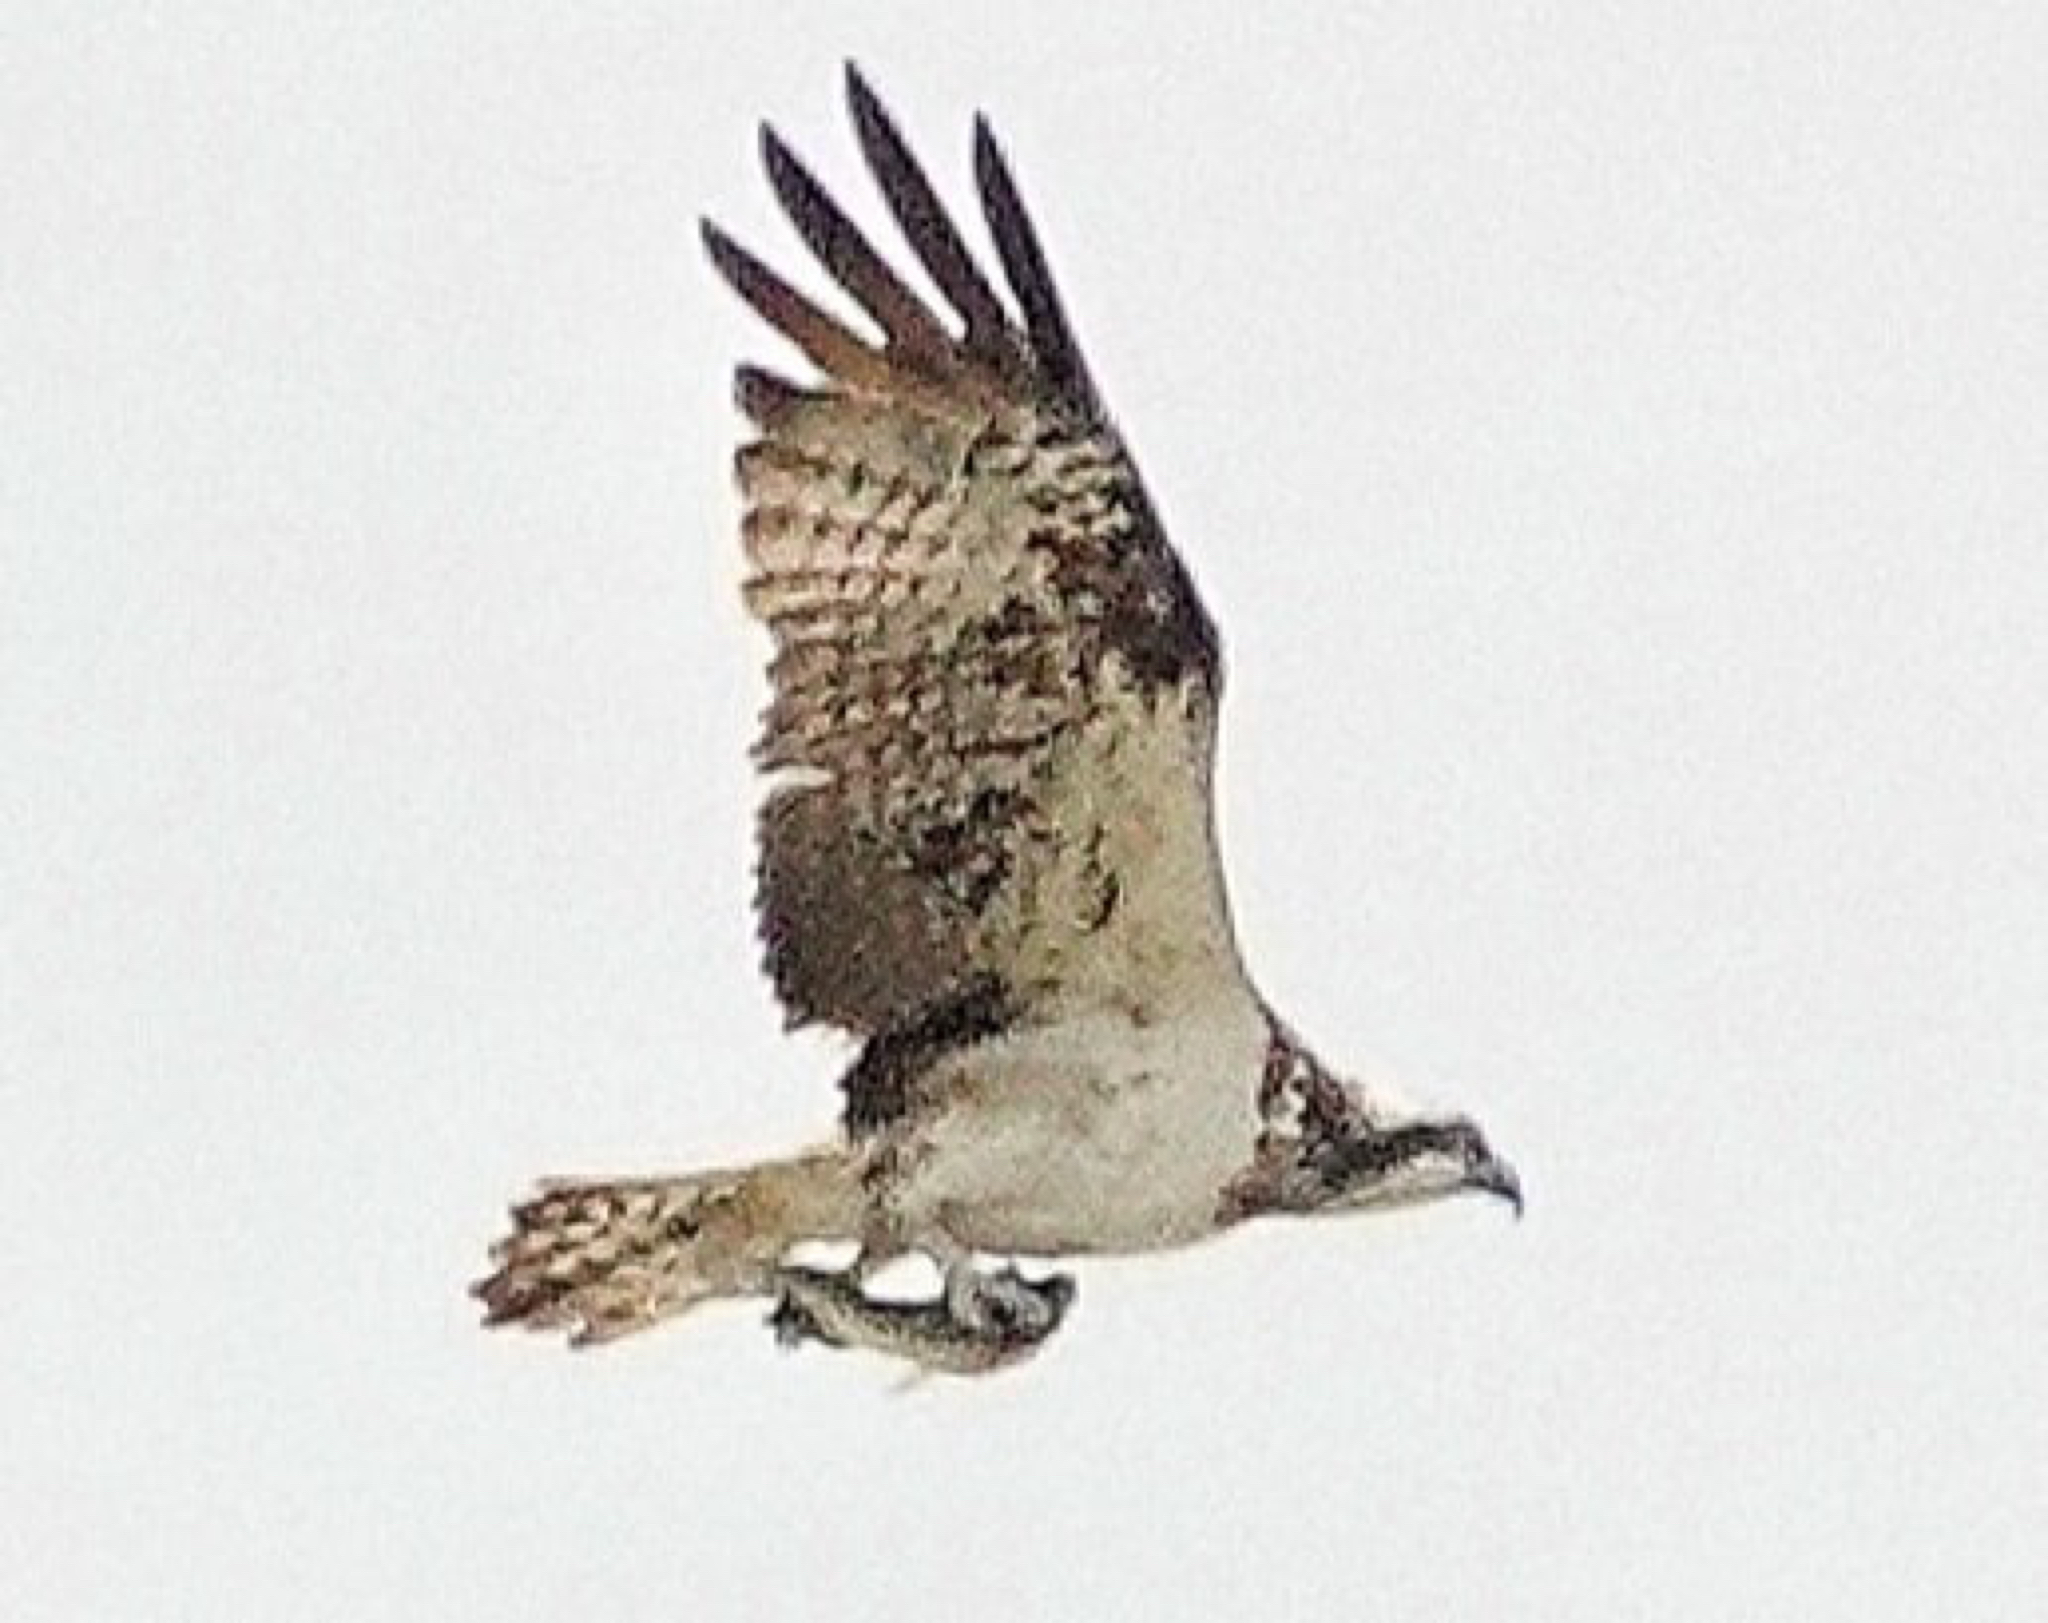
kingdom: Animalia
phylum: Chordata
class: Aves
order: Accipitriformes
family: Pandionidae
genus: Pandion
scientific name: Pandion haliaetus
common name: Osprey
